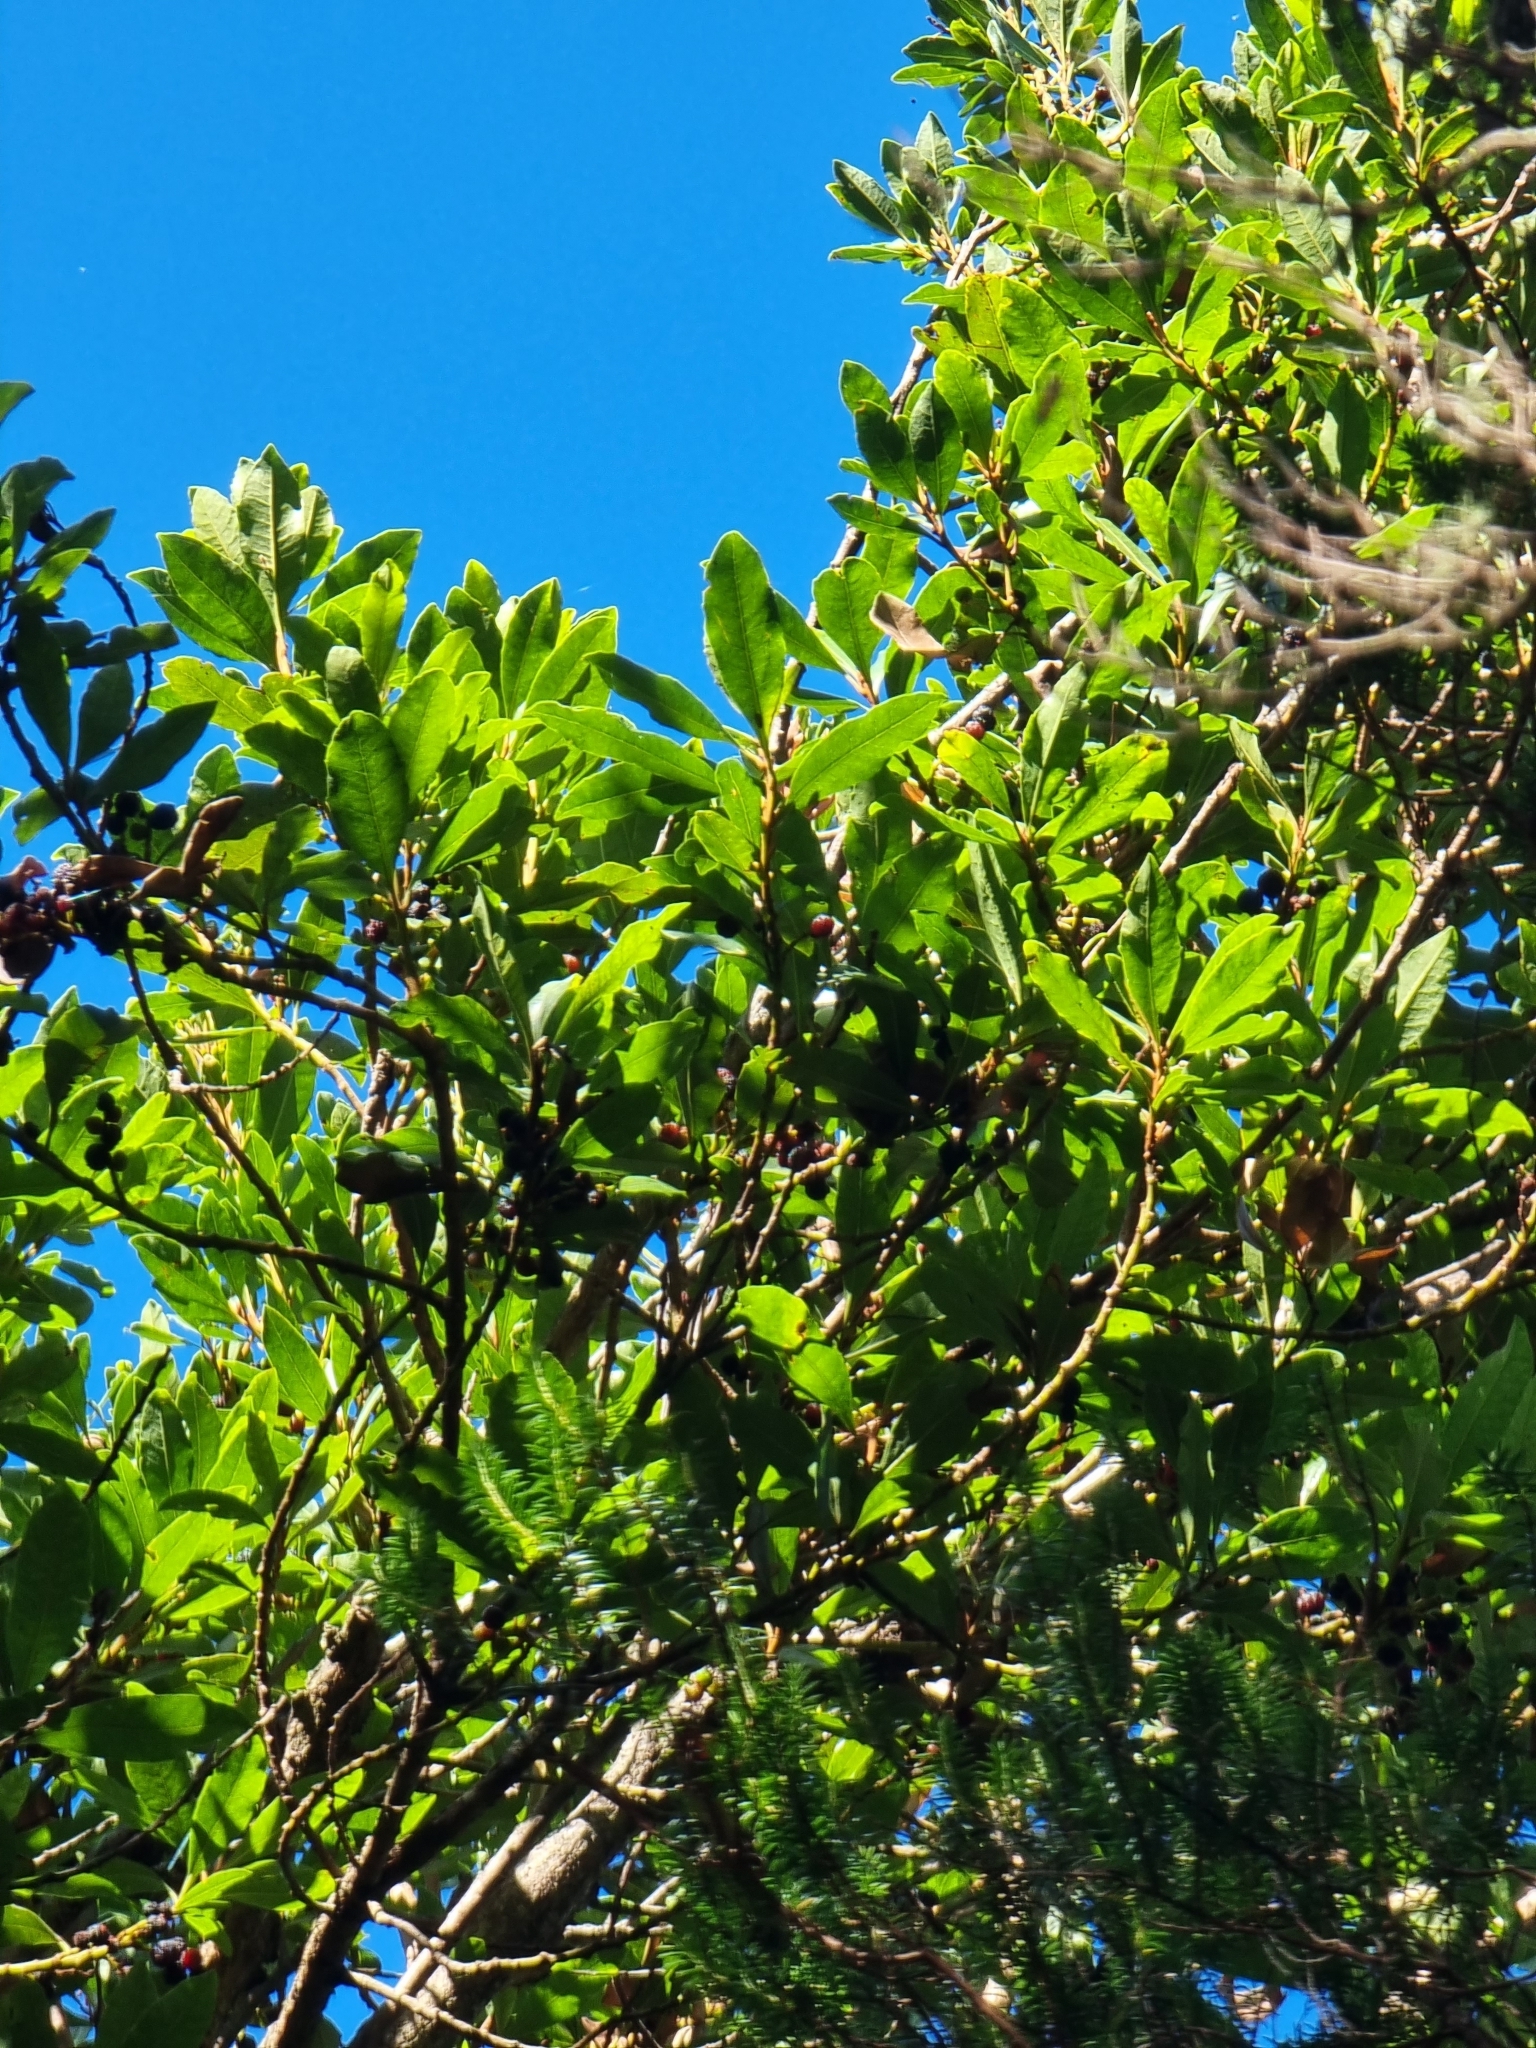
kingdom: Plantae
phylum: Tracheophyta
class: Magnoliopsida
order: Fagales
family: Myricaceae
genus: Morella
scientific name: Morella faya
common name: Firetree
